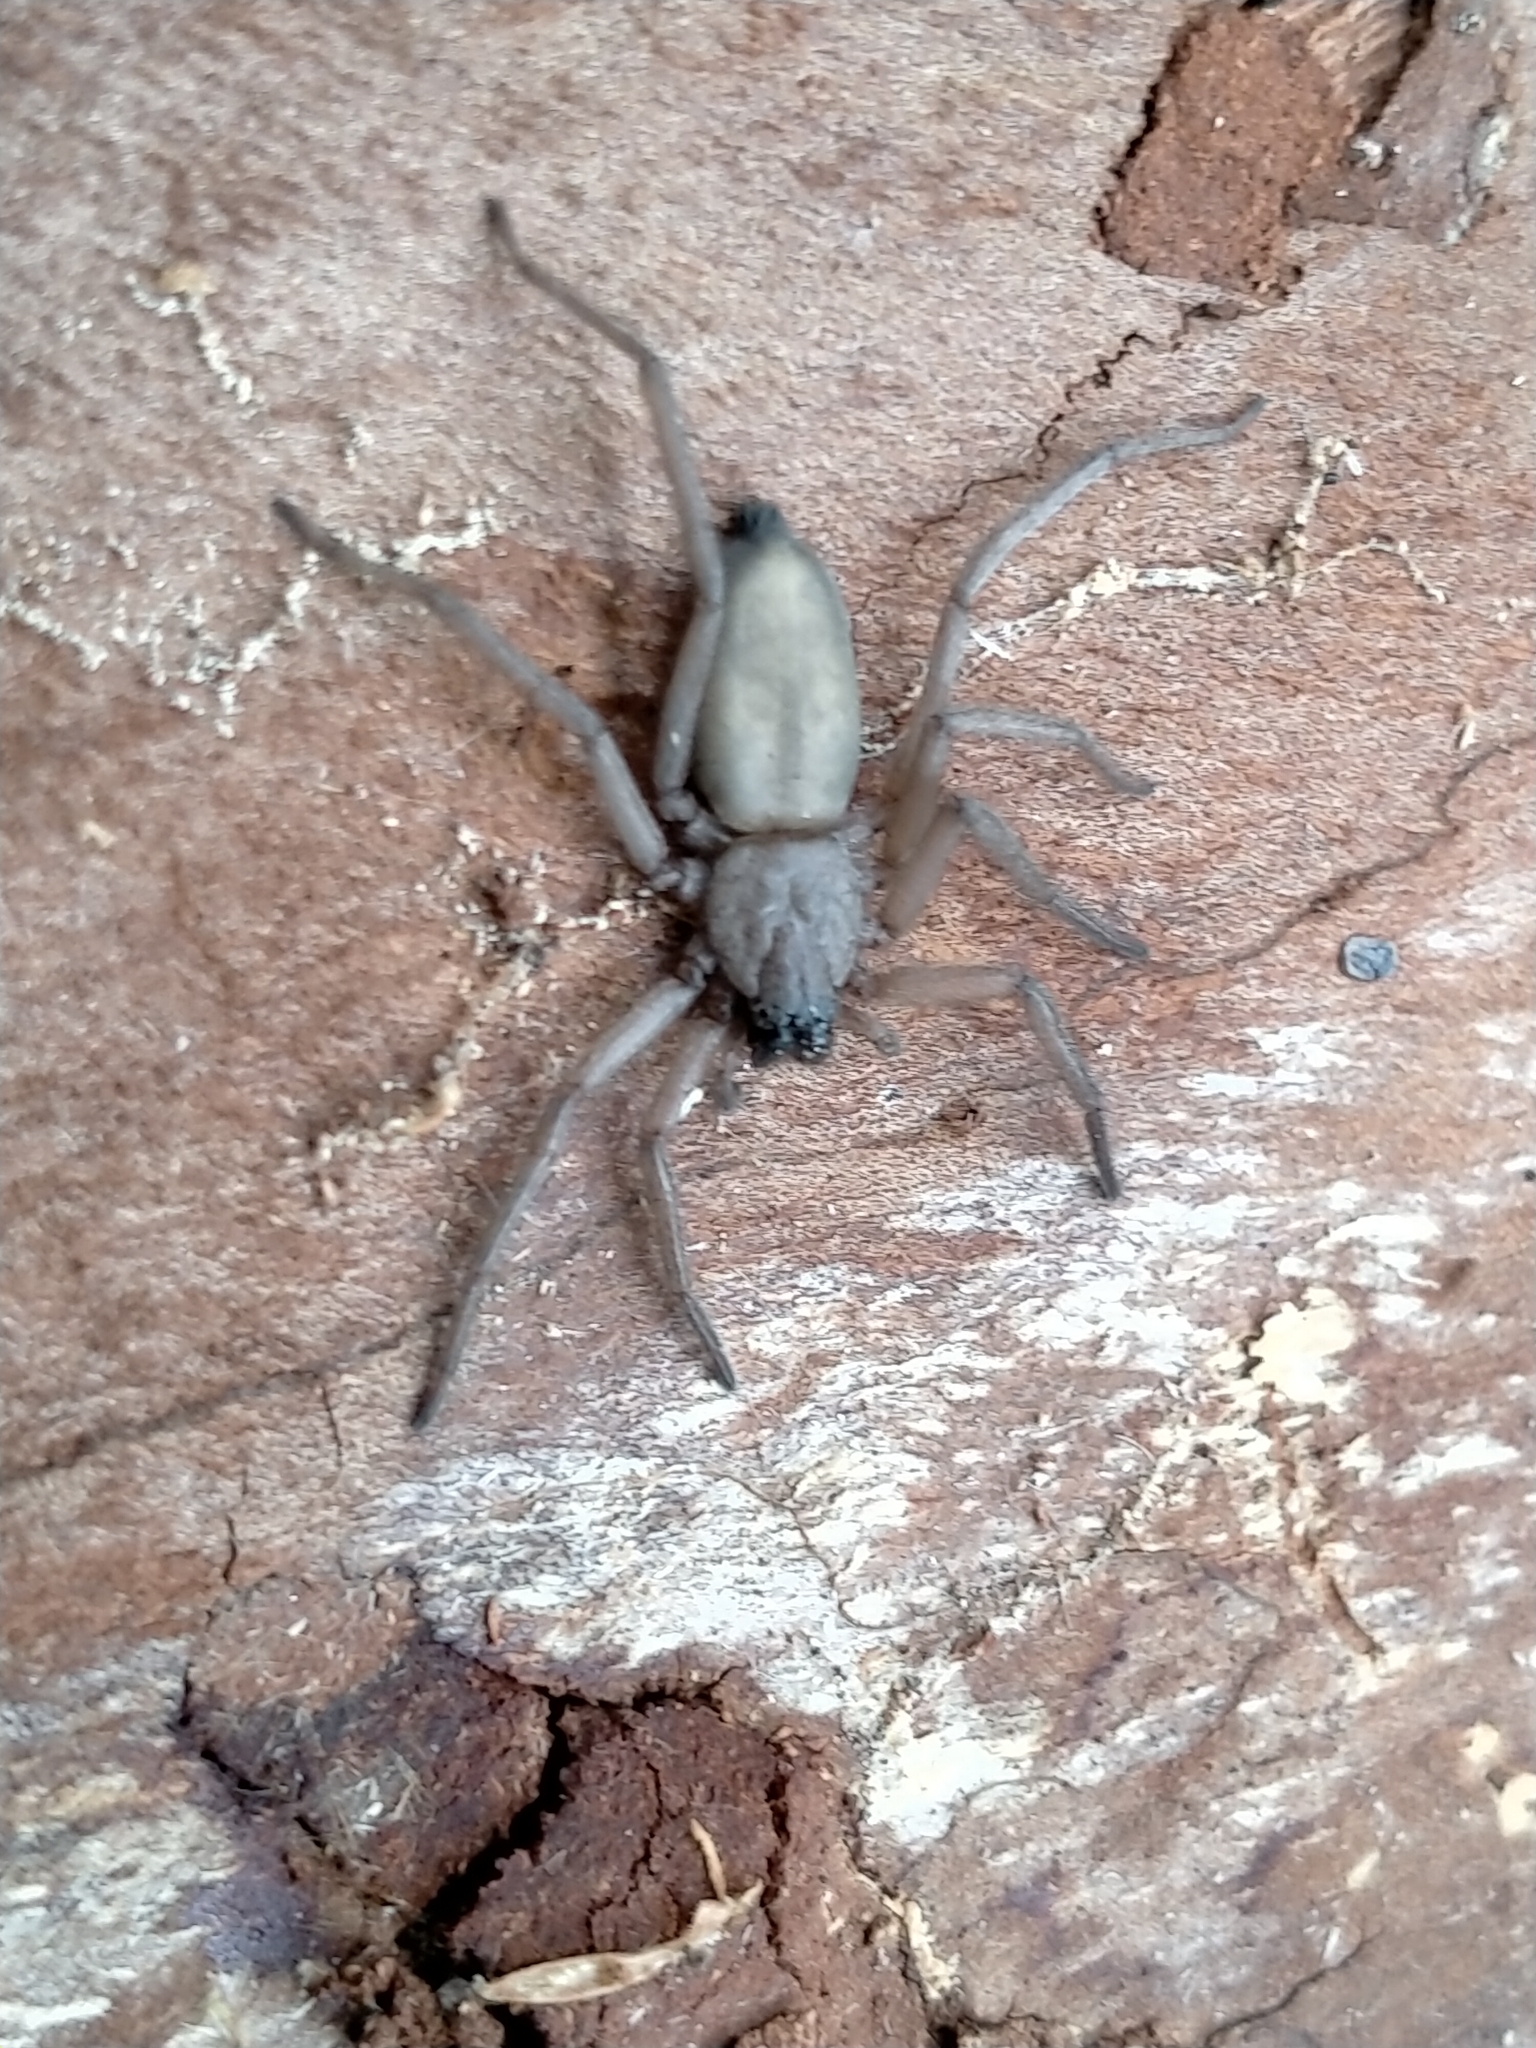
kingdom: Animalia
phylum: Arthropoda
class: Arachnida
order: Araneae
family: Trochanteriidae
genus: Hemicloea
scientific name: Hemicloea rogenhoferi
